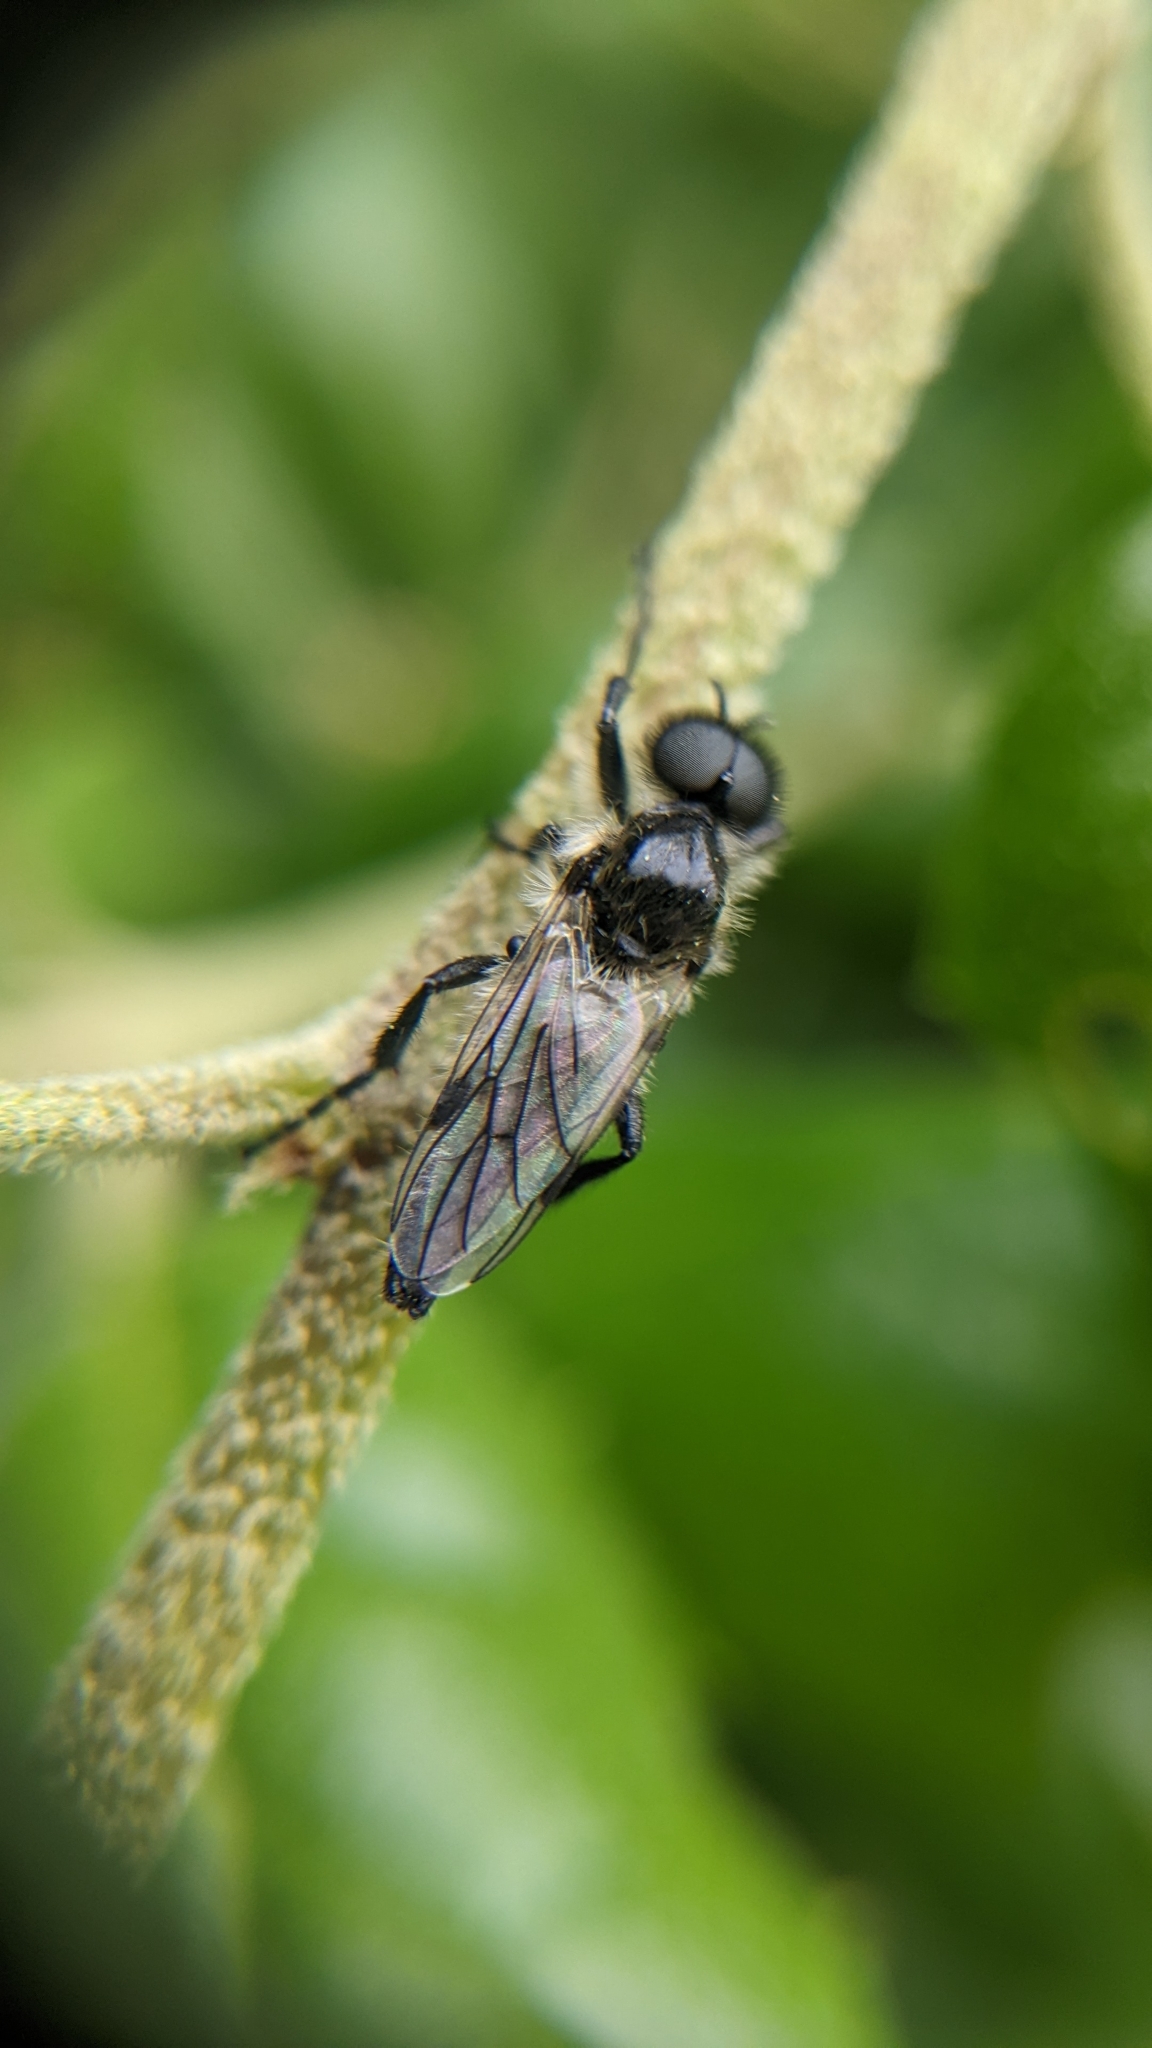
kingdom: Animalia
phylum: Arthropoda
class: Insecta
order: Diptera
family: Bibionidae
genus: Bibio
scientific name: Bibio albipennis
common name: White-winged march fly
